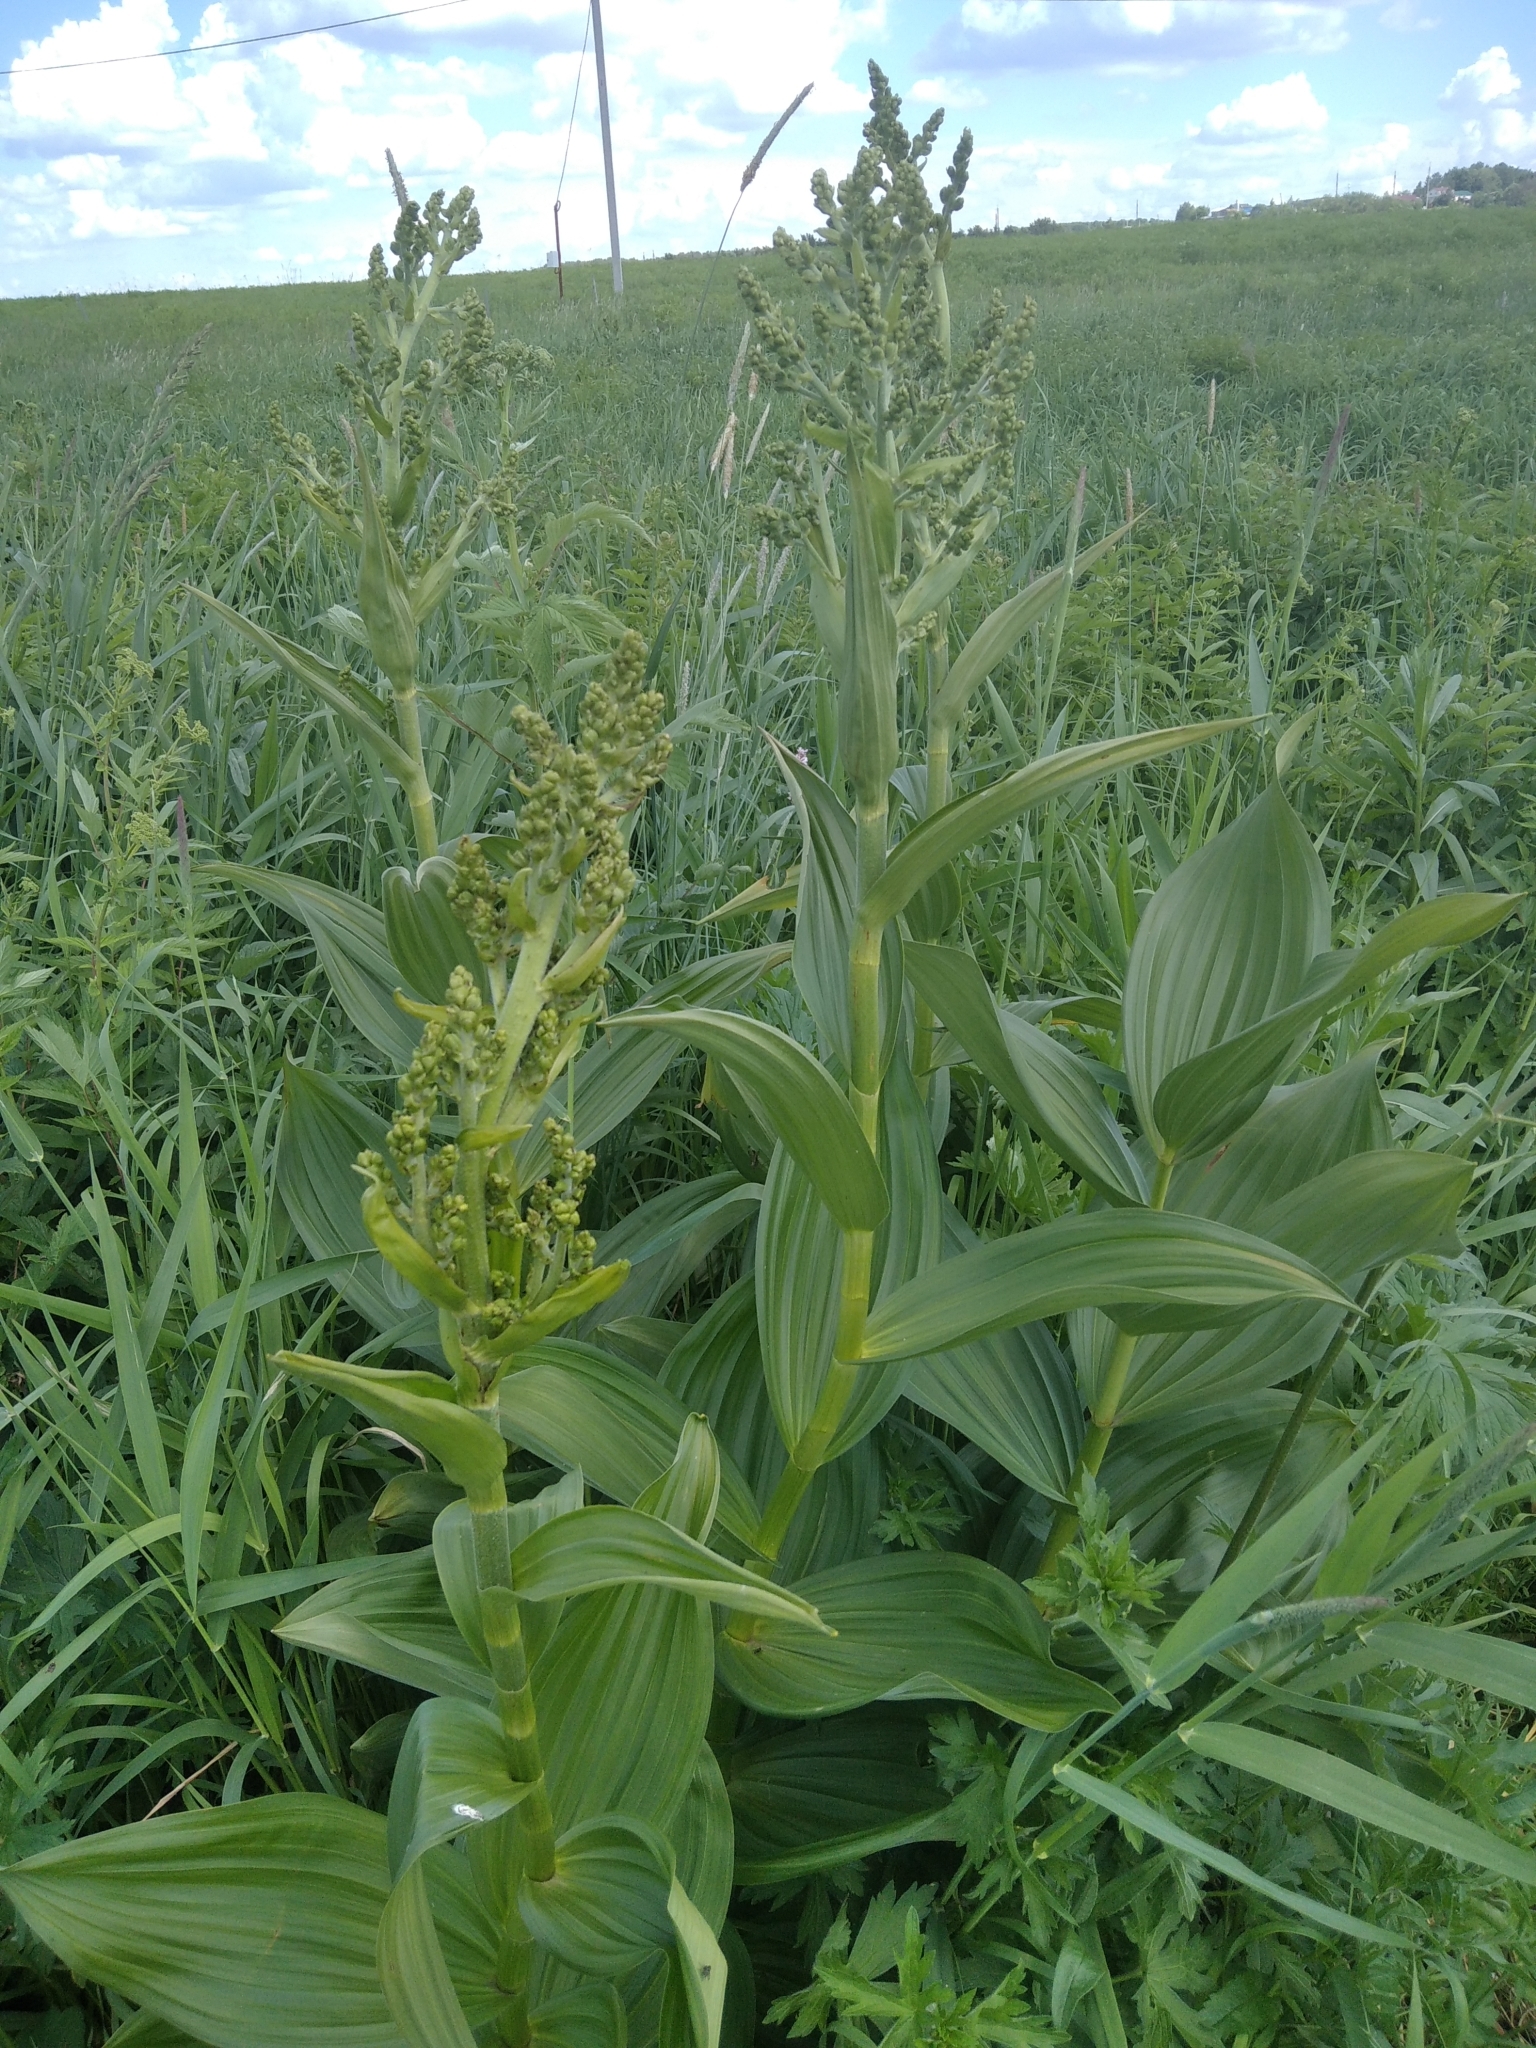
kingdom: Plantae
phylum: Tracheophyta
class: Liliopsida
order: Liliales
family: Melanthiaceae
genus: Veratrum
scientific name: Veratrum lobelianum
